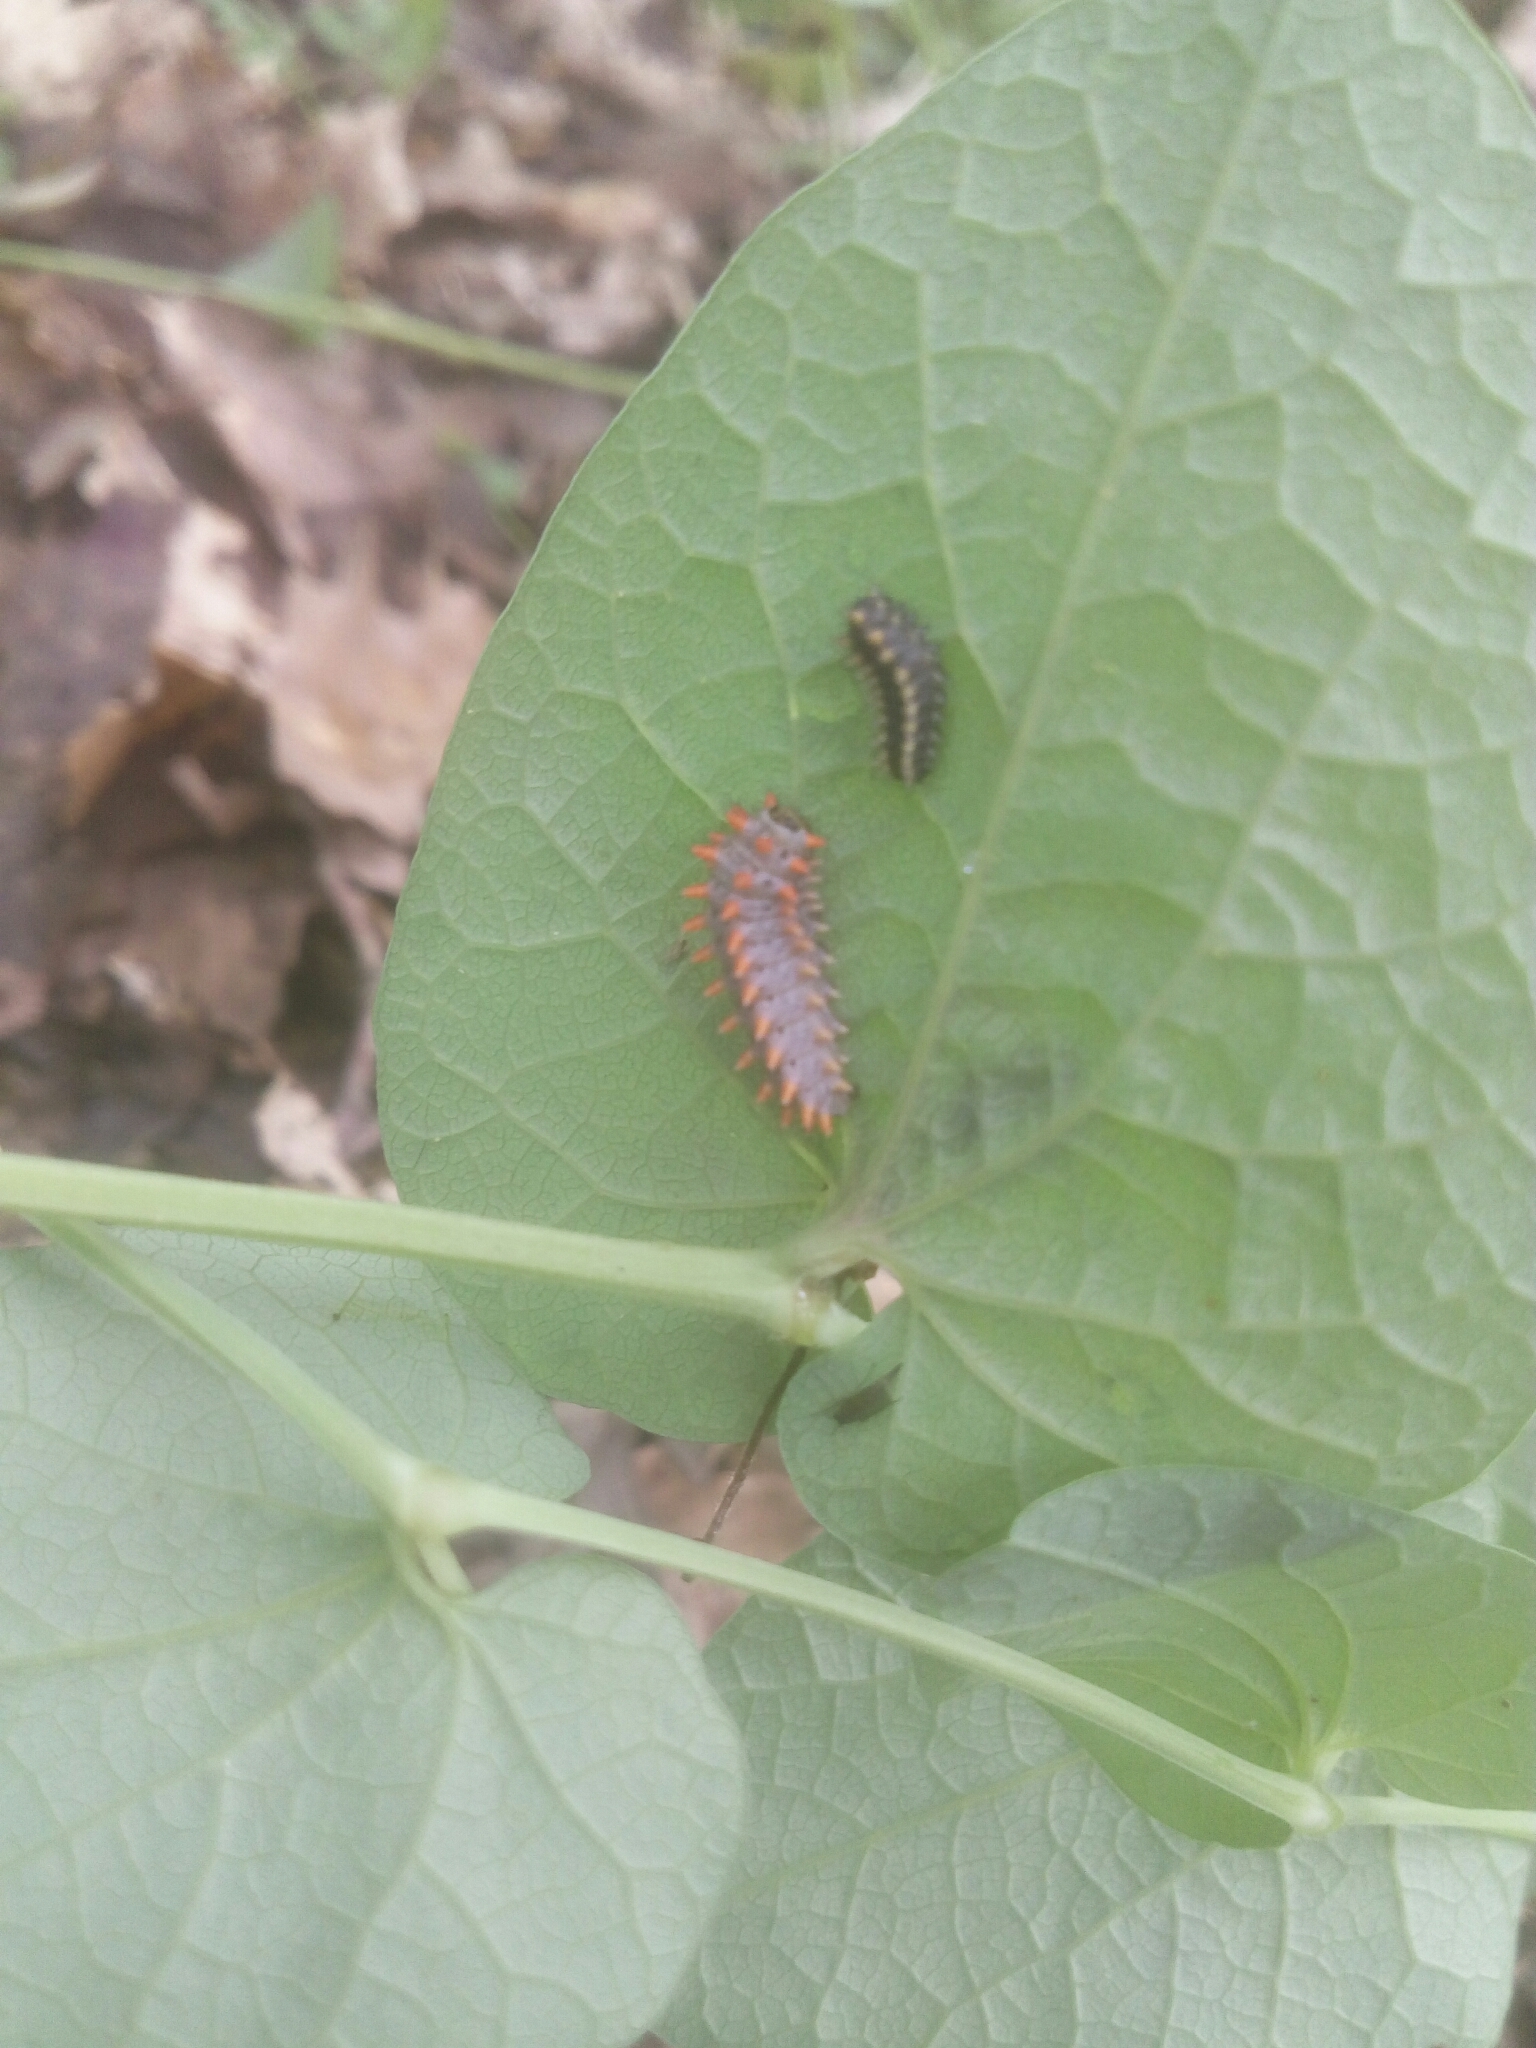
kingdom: Animalia
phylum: Arthropoda
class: Insecta
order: Lepidoptera
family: Papilionidae
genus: Zerynthia
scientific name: Zerynthia cassandra
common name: Italian festoon
